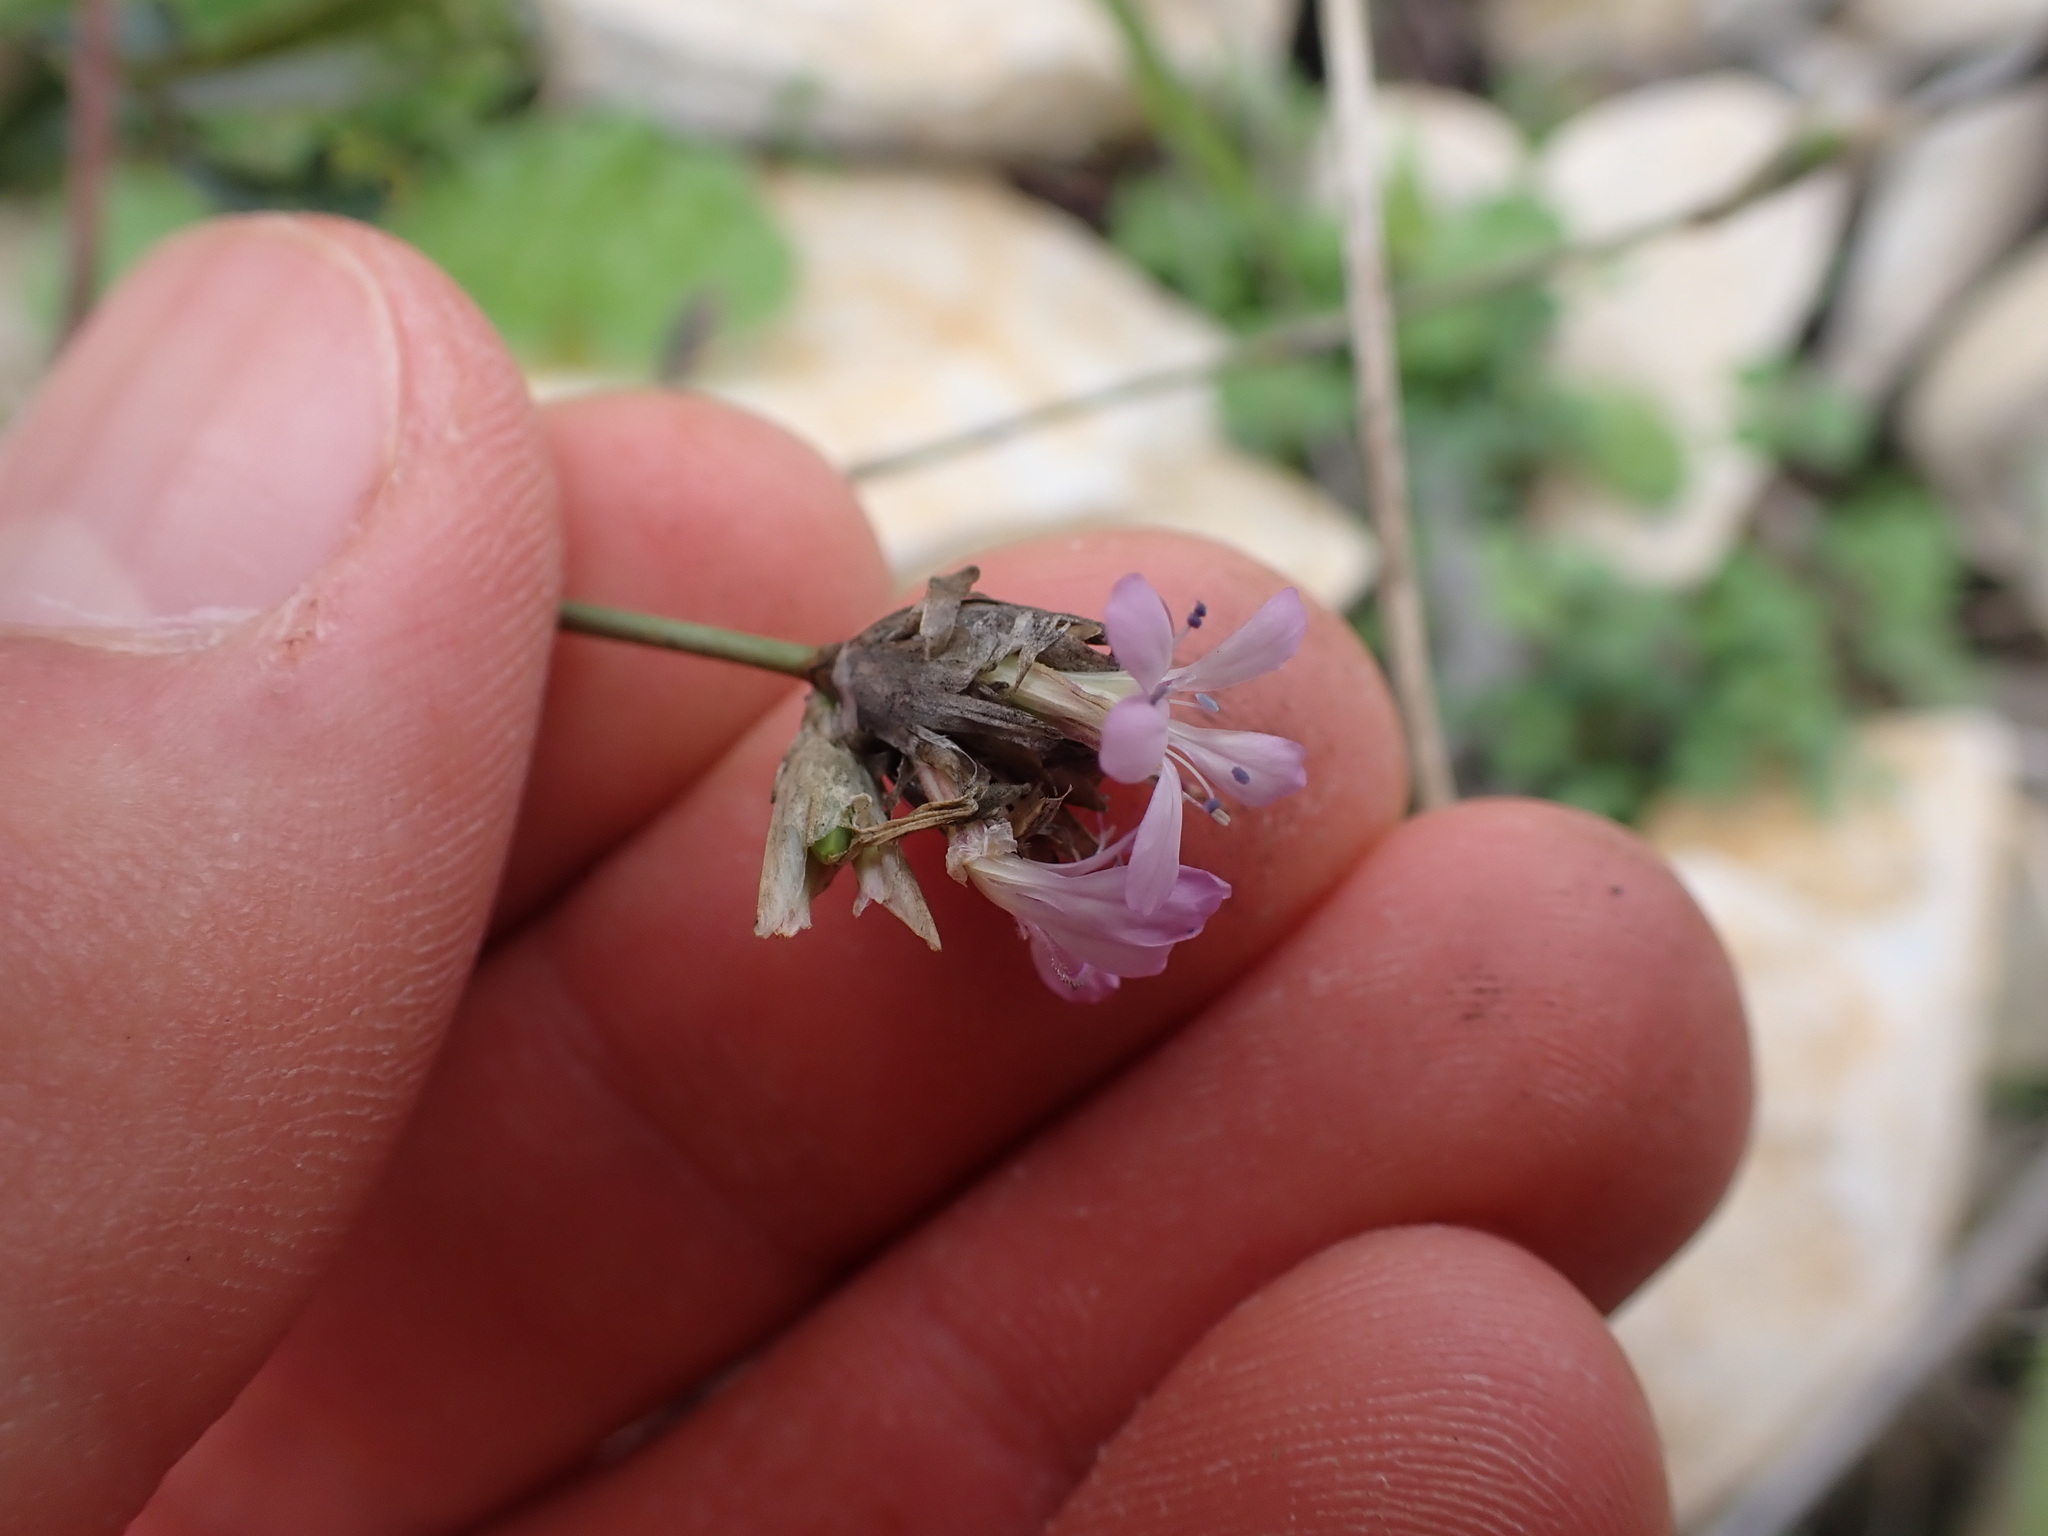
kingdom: Plantae
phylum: Tracheophyta
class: Magnoliopsida
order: Caryophyllales
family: Caryophyllaceae
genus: Petrorhagia
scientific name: Petrorhagia prolifera
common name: Proliferous pink
